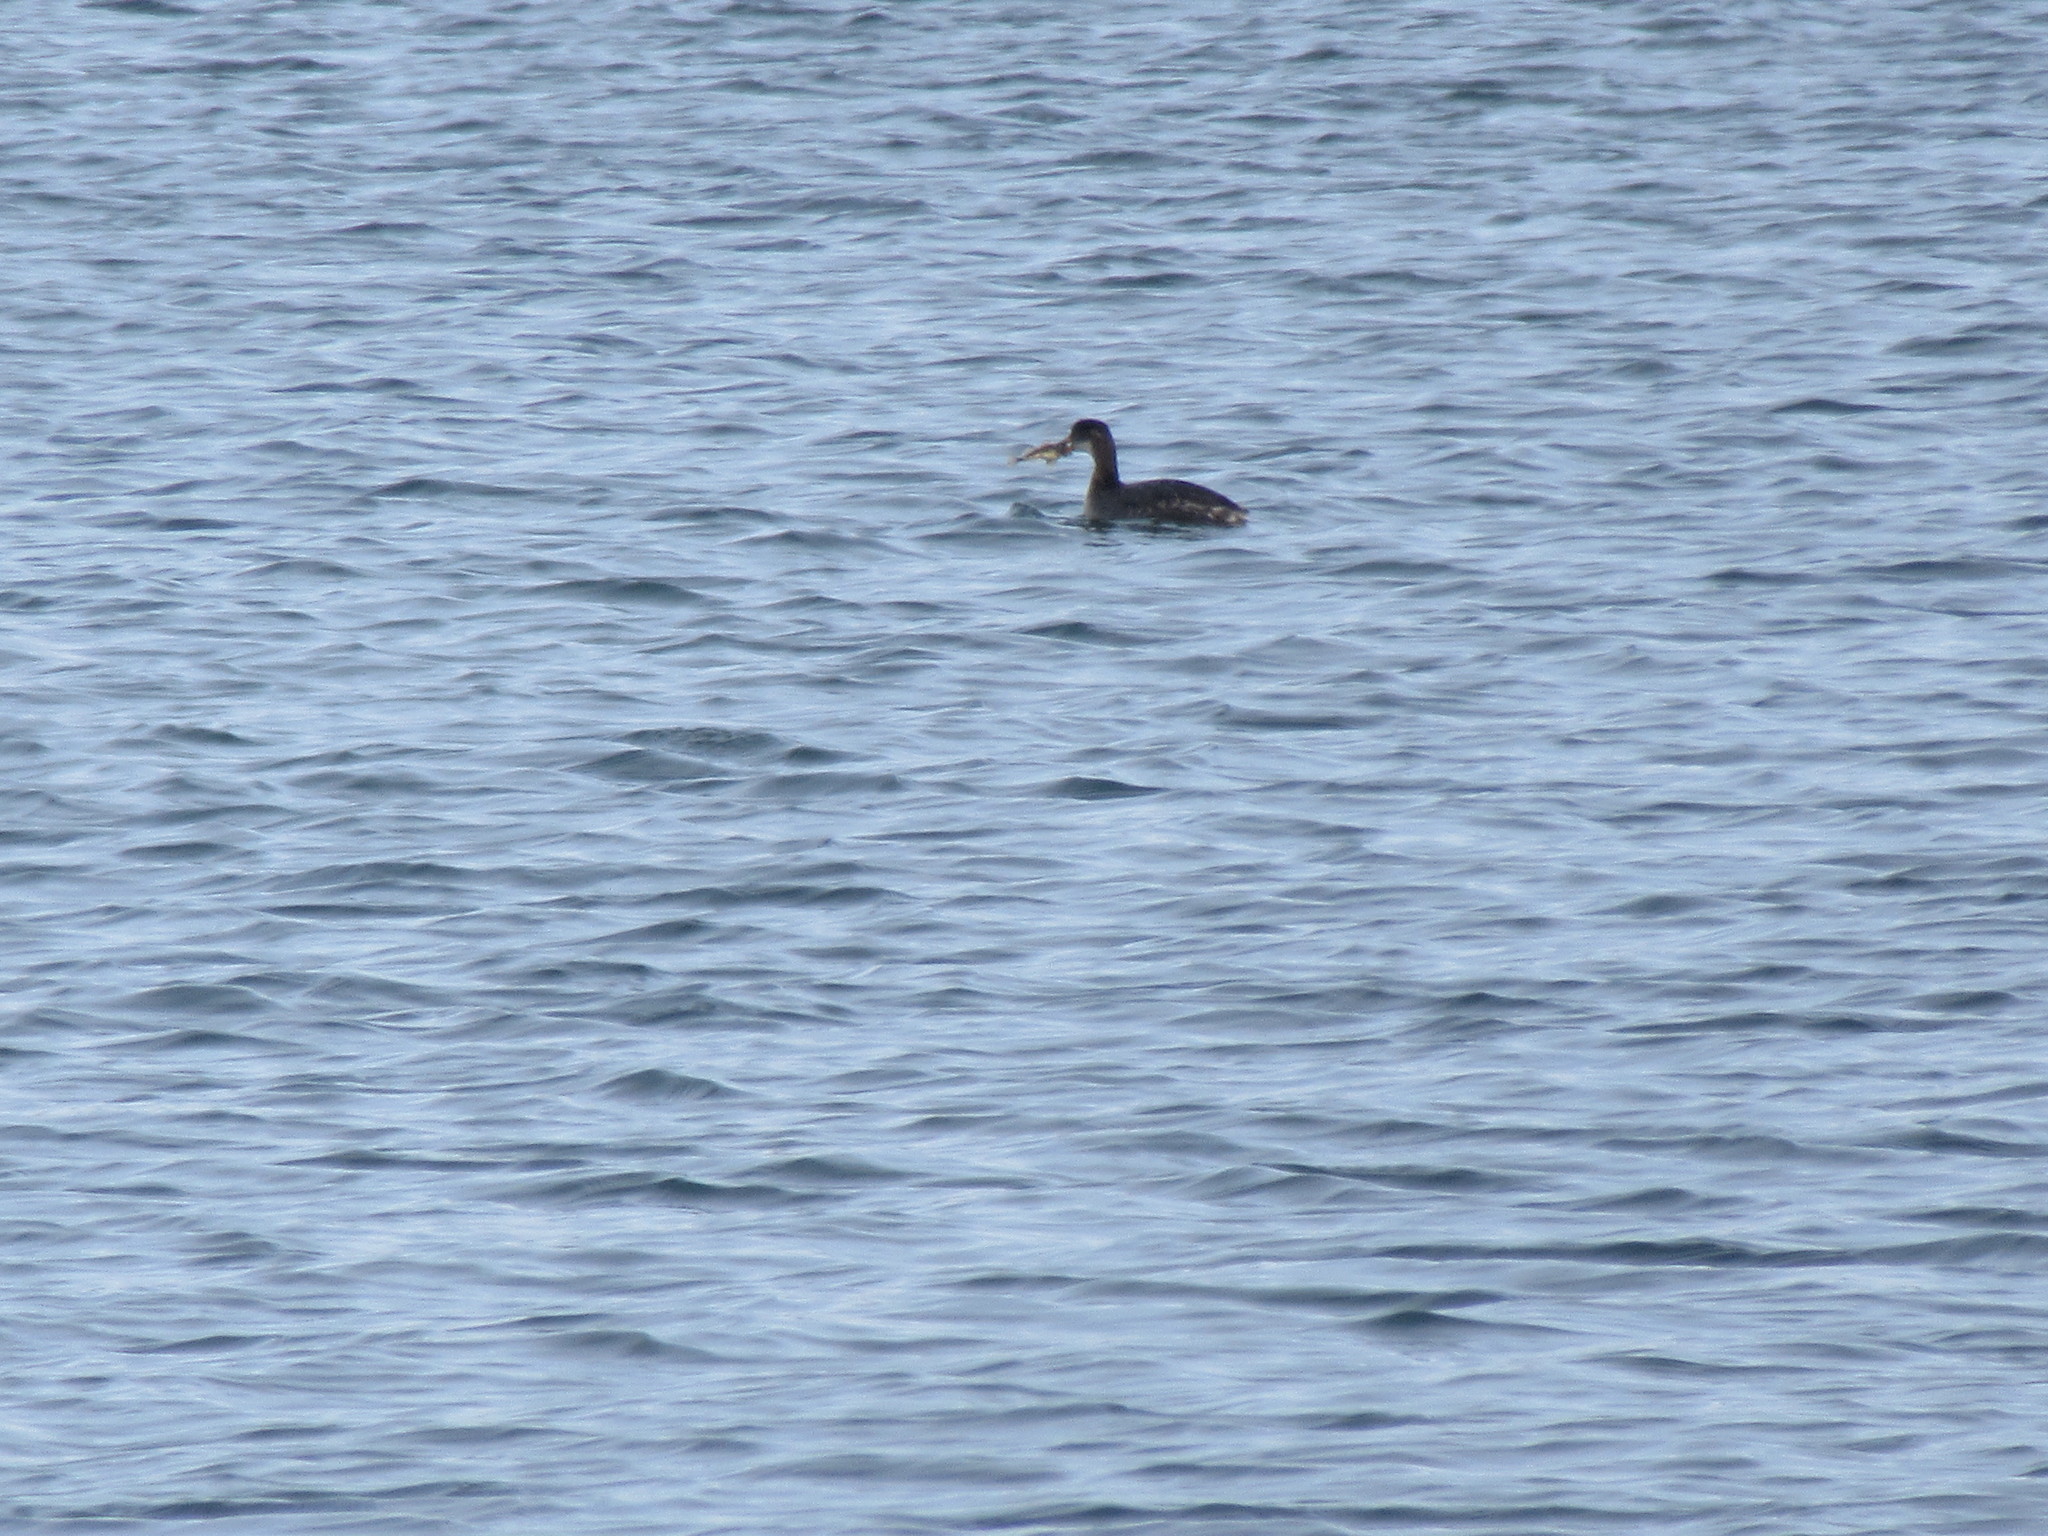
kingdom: Animalia
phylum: Chordata
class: Aves
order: Podicipediformes
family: Podicipedidae
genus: Podiceps
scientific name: Podiceps grisegena
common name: Red-necked grebe
